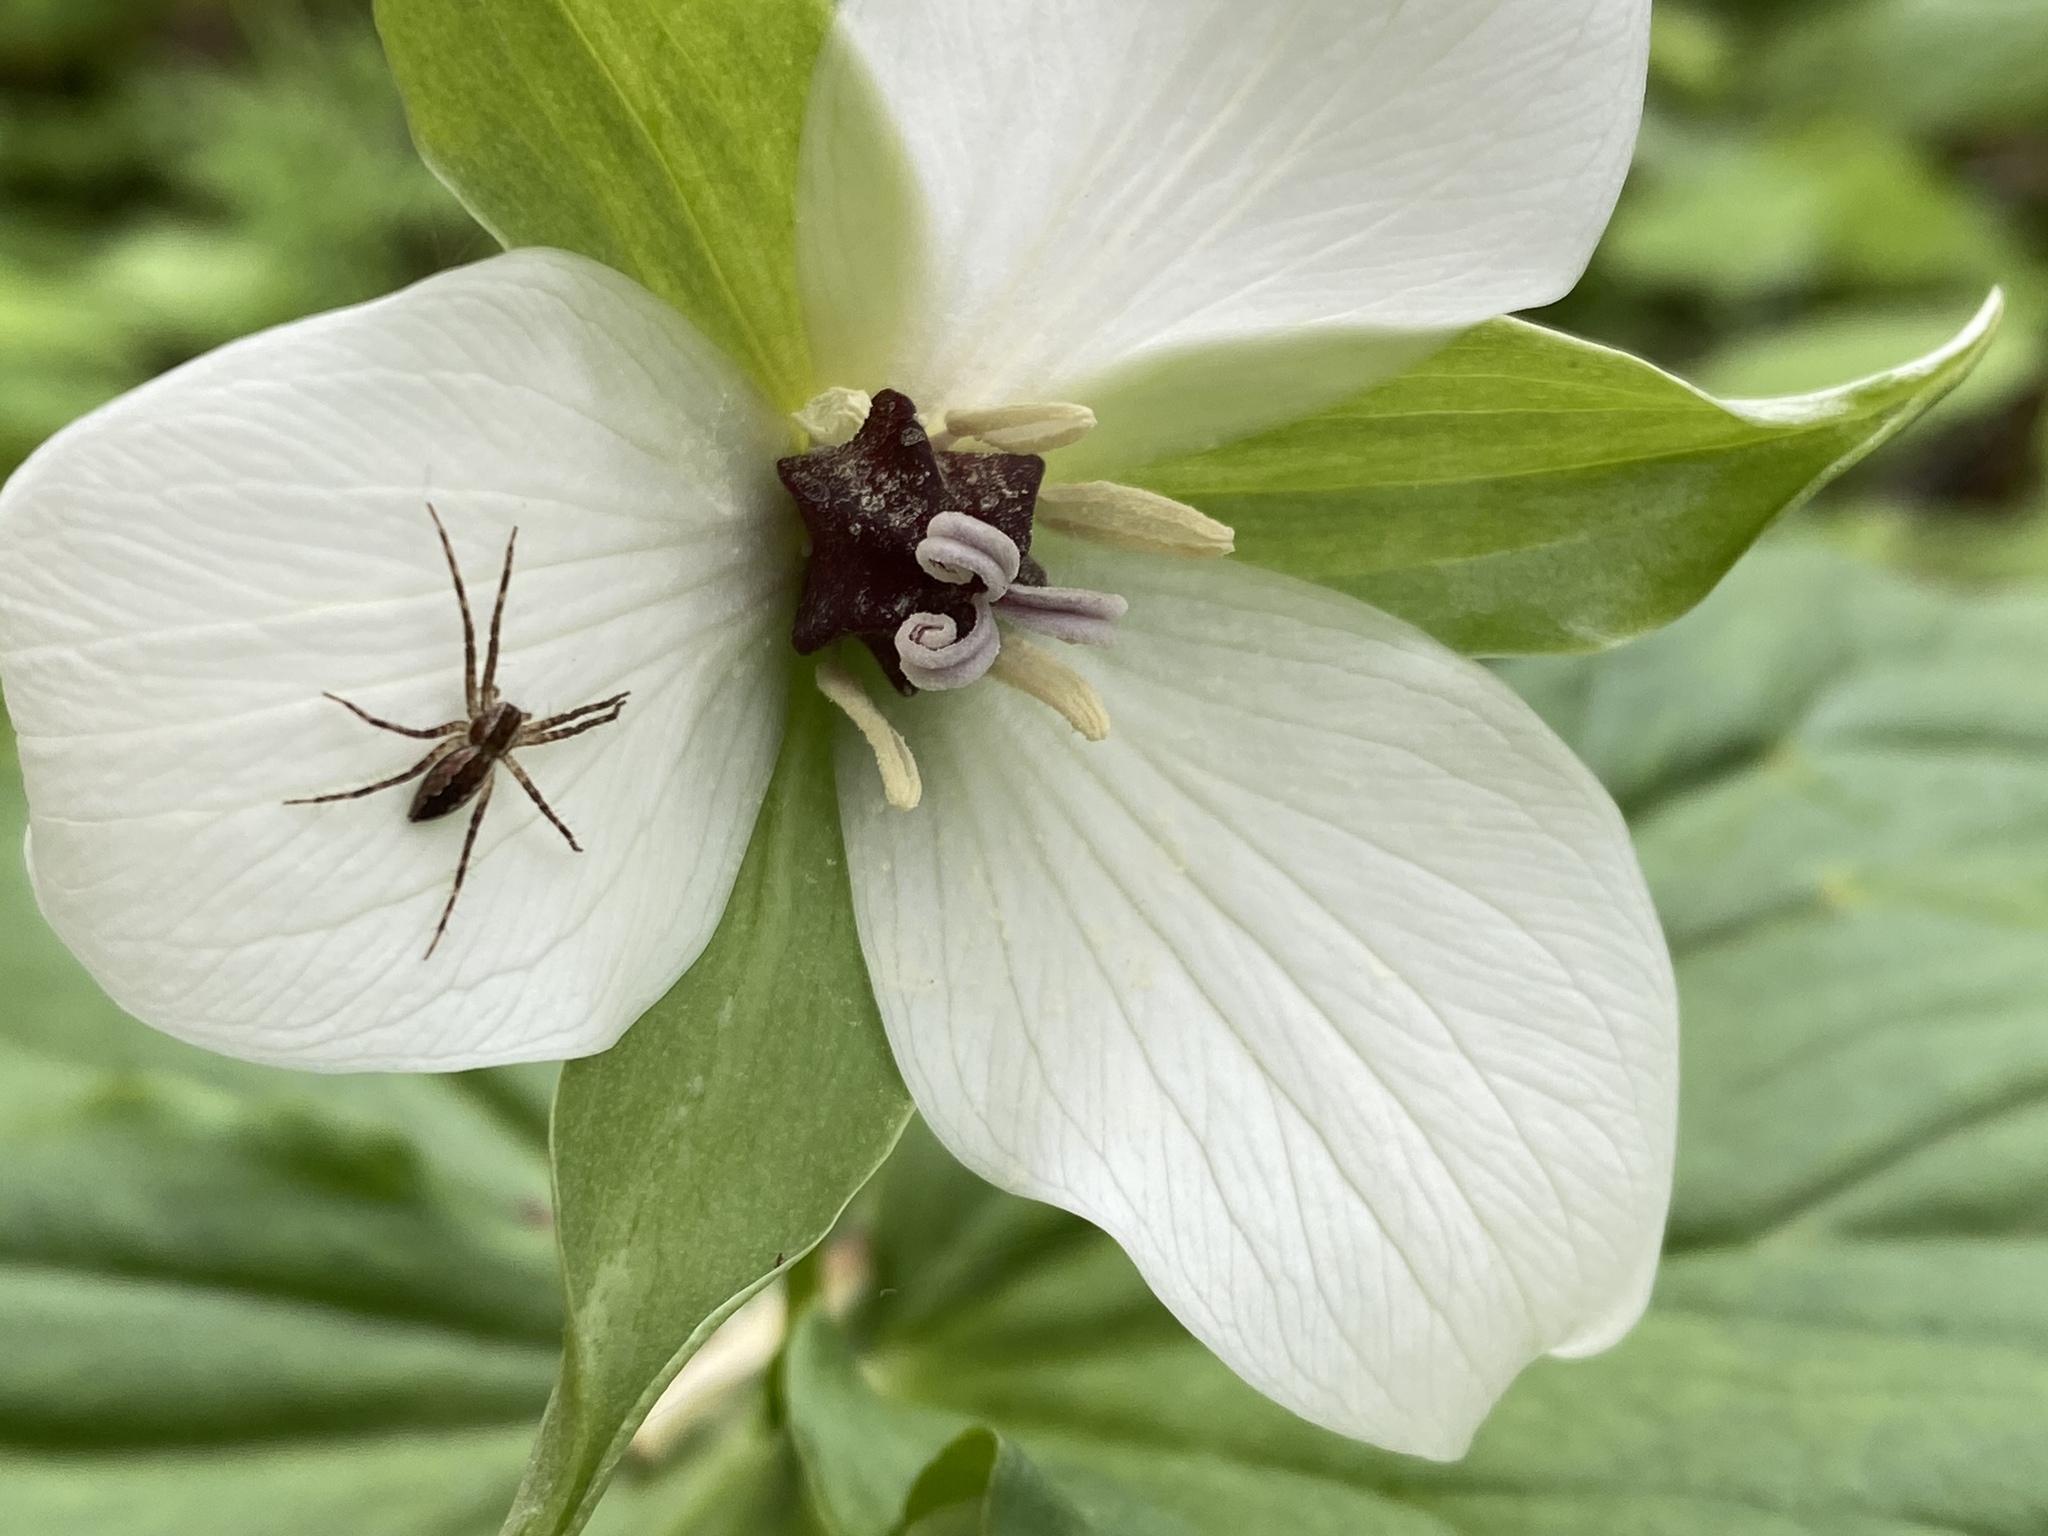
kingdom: Animalia
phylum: Arthropoda
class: Arachnida
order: Araneae
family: Pisauridae
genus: Pisaurina
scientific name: Pisaurina mira
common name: American nursery web spider
